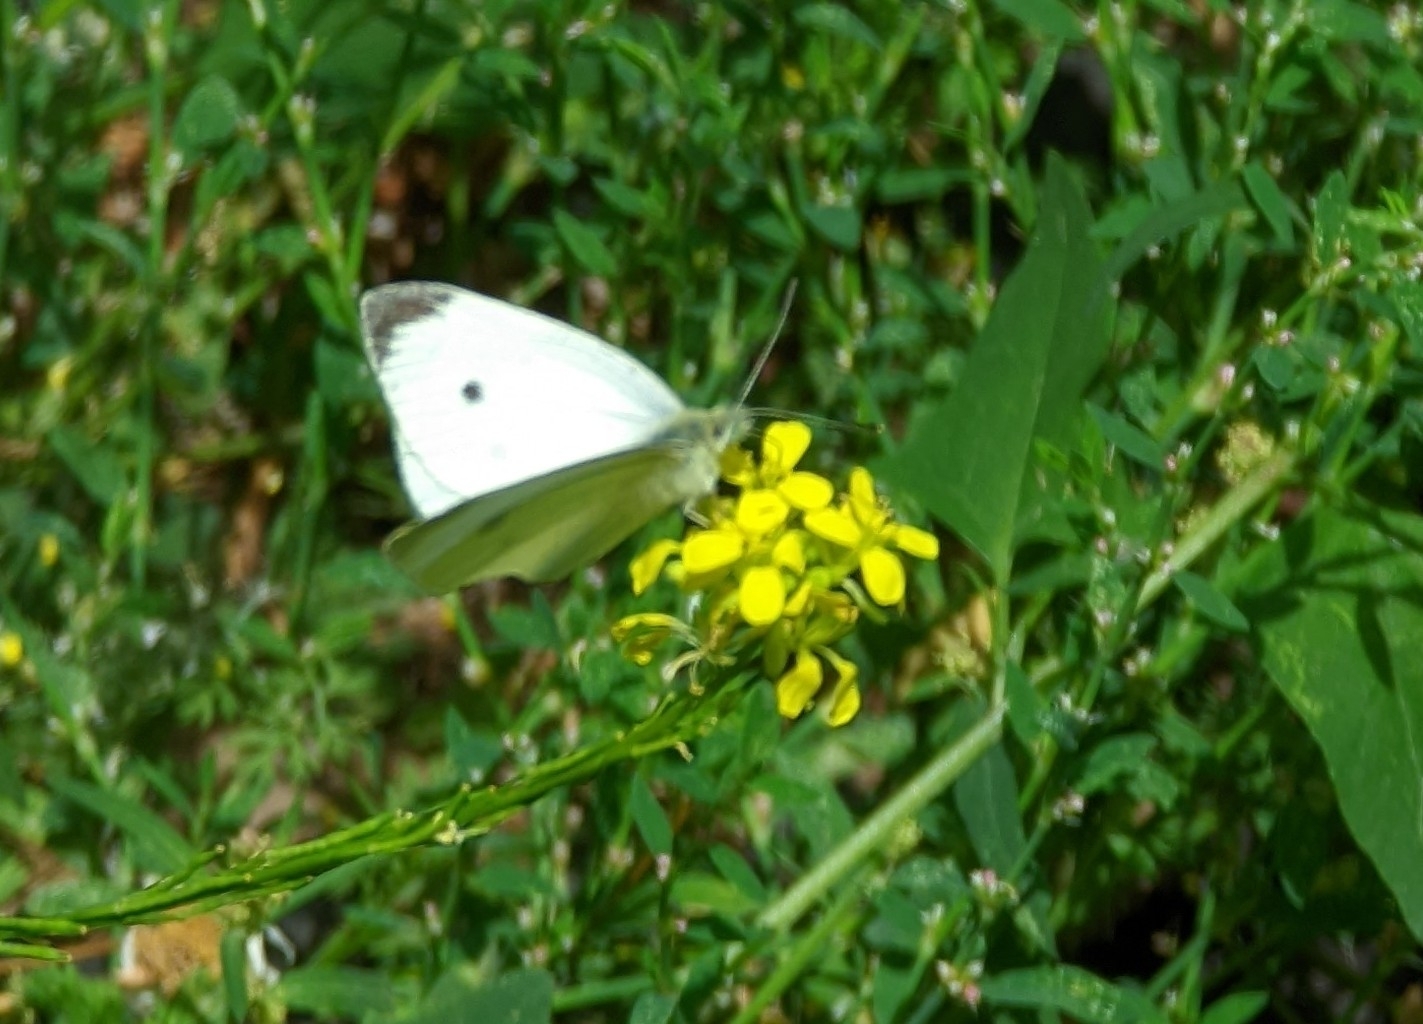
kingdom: Animalia
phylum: Arthropoda
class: Insecta
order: Lepidoptera
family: Pieridae
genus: Pieris
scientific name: Pieris rapae
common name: Small white
